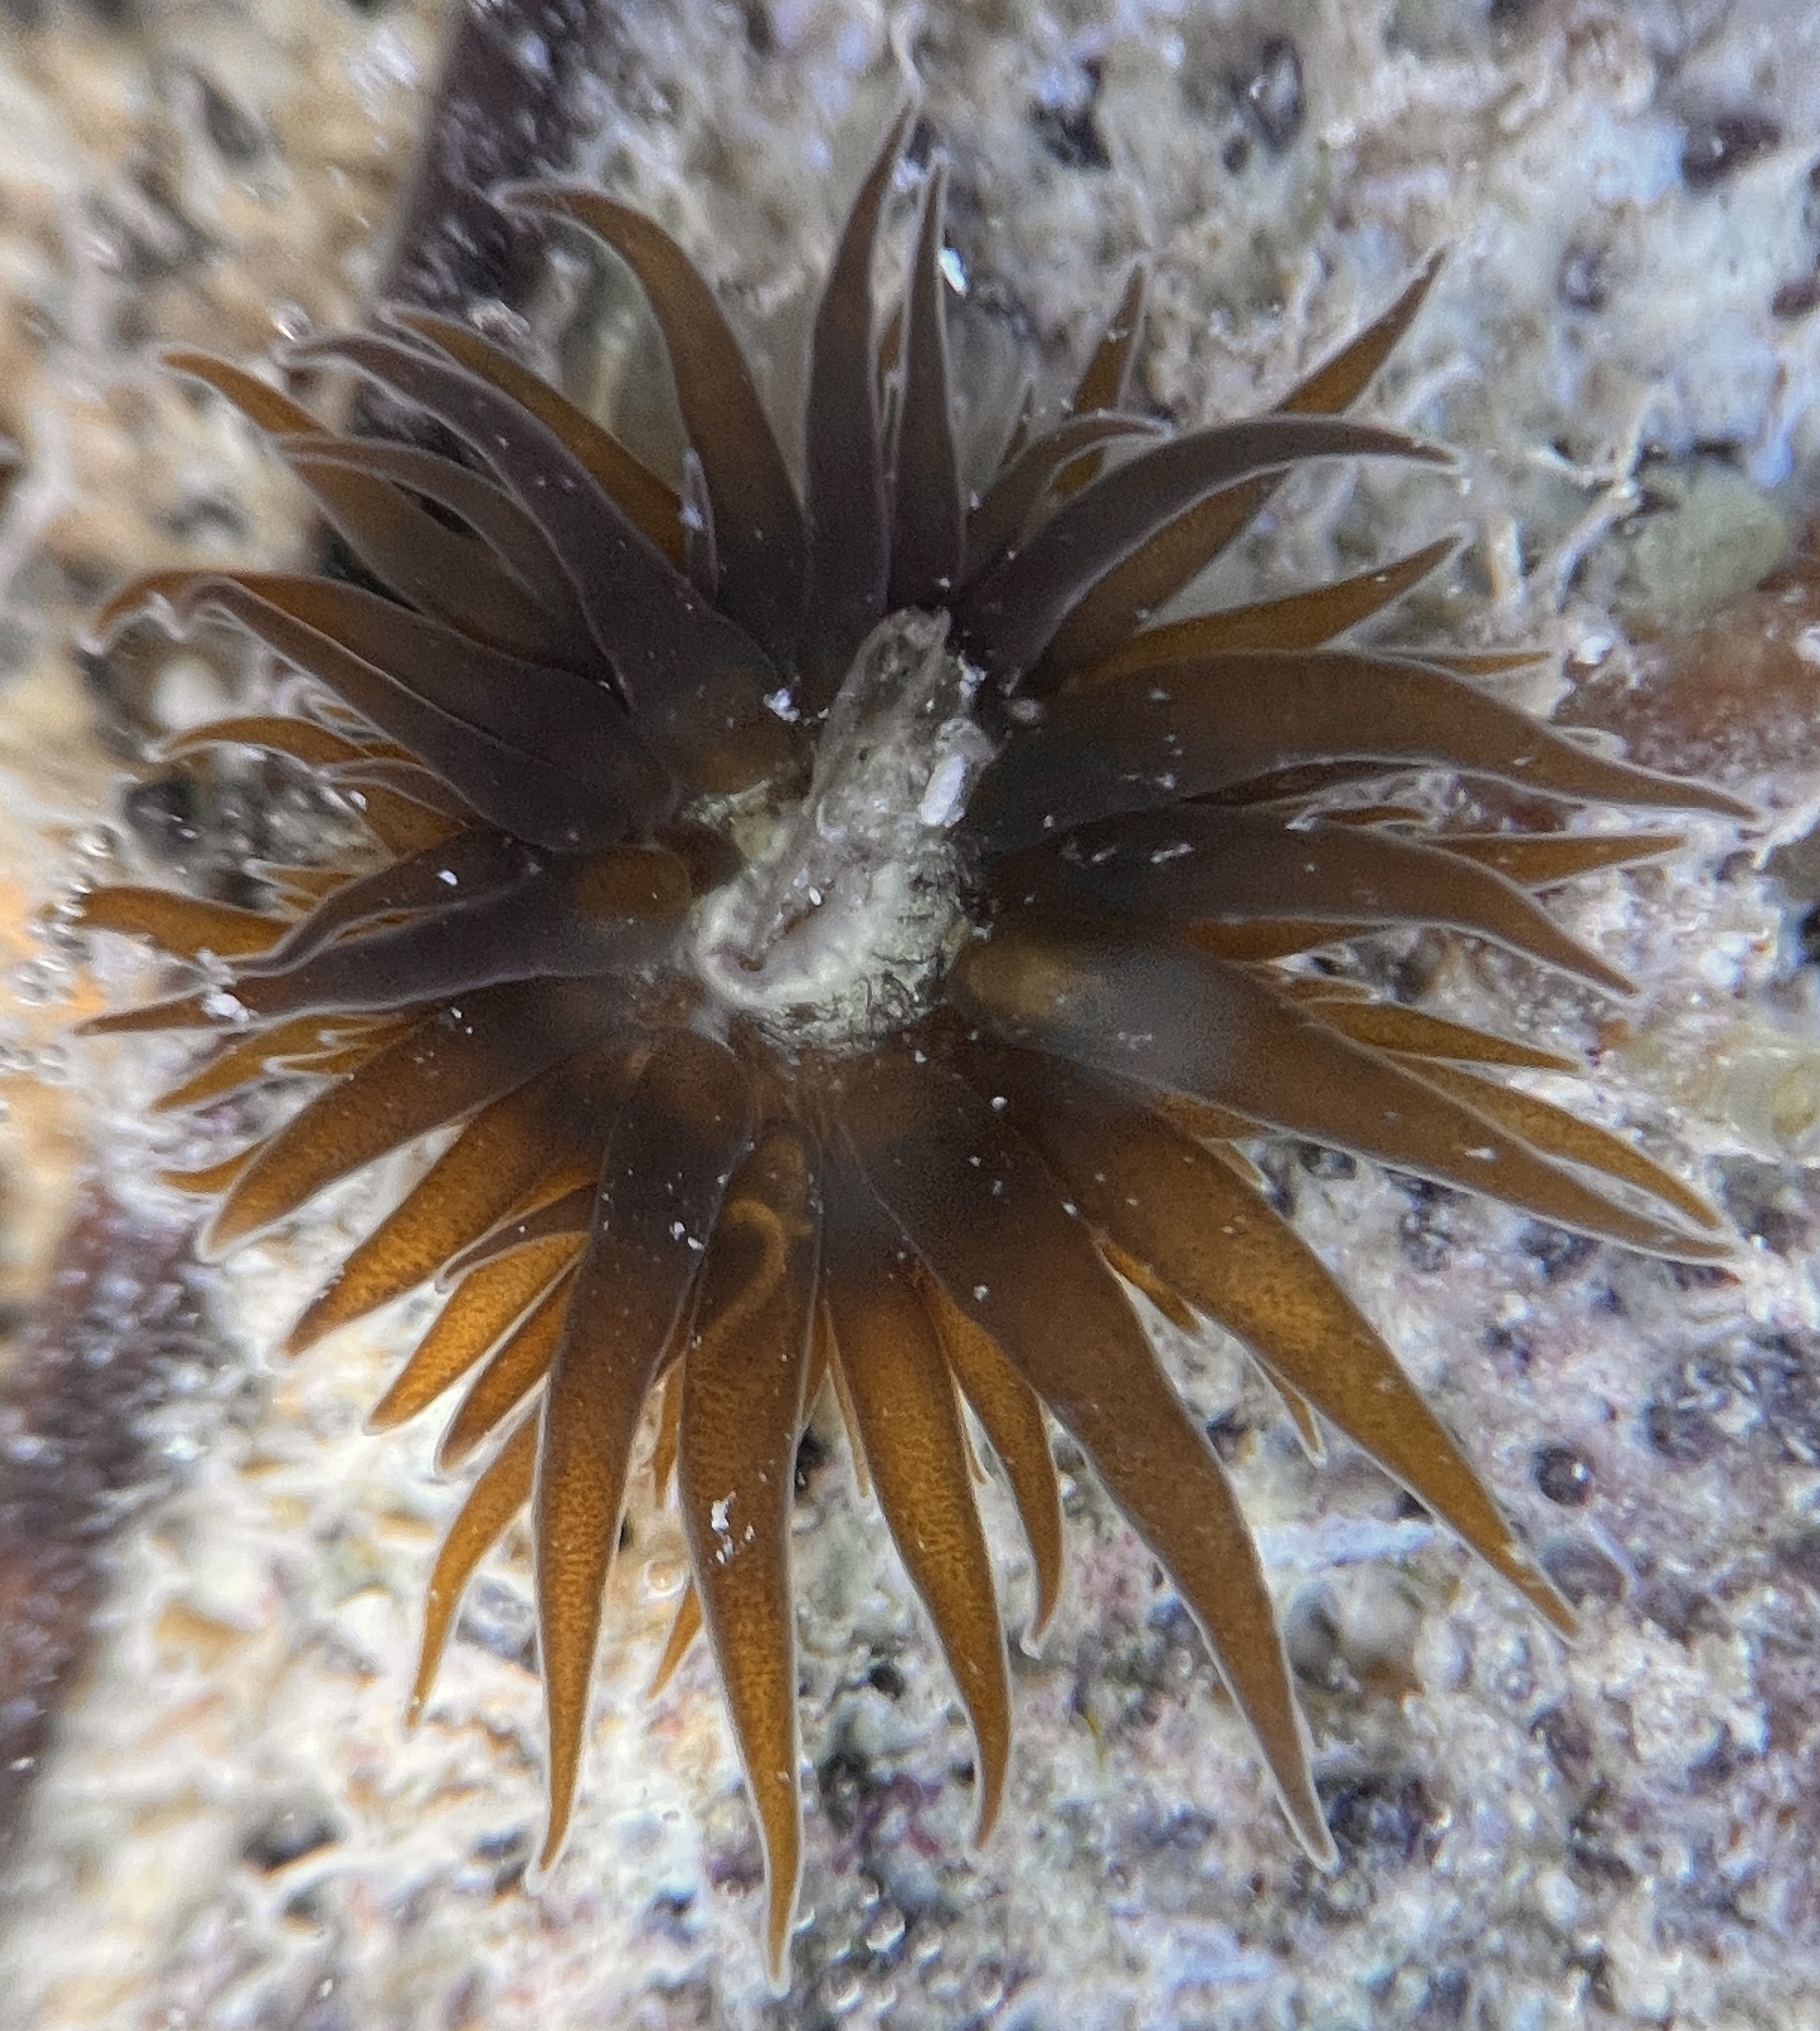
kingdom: Animalia
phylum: Cnidaria
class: Anthozoa
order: Actiniaria
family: Aiptasiidae
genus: Exaiptasia
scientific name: Exaiptasia diaphana
